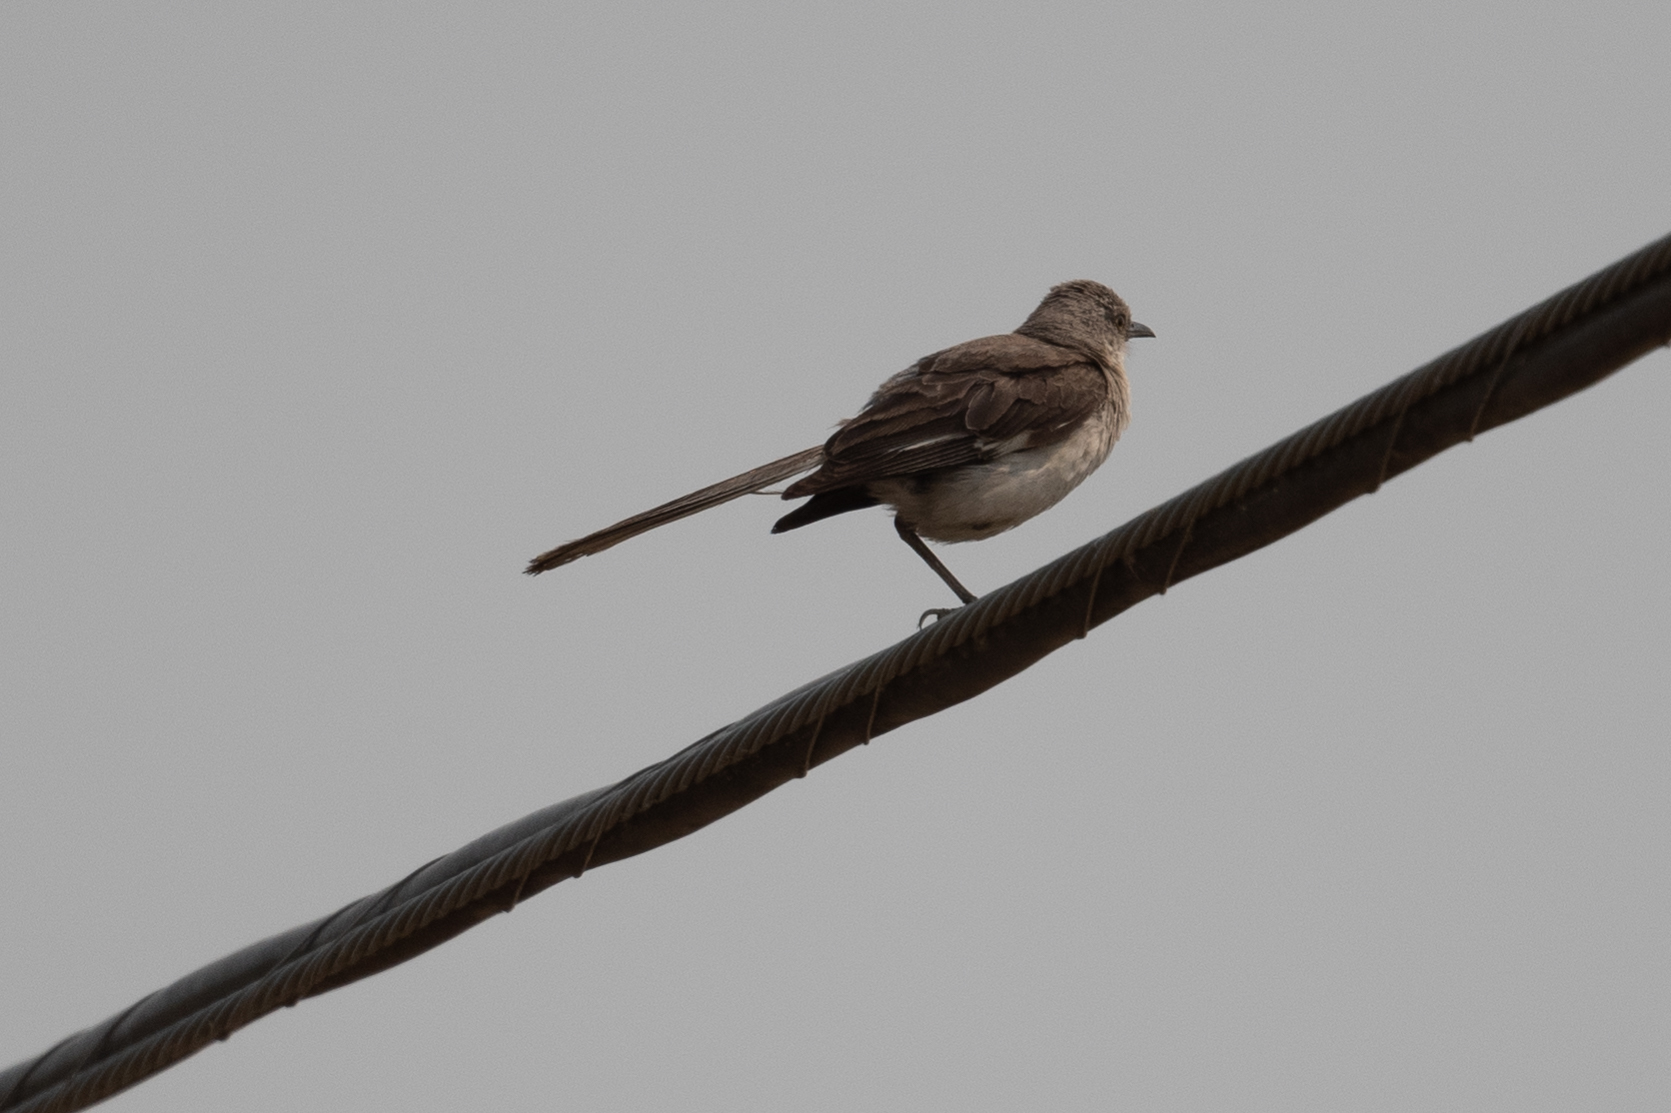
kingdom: Animalia
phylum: Chordata
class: Aves
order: Passeriformes
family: Mimidae
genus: Mimus
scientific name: Mimus polyglottos
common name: Northern mockingbird
